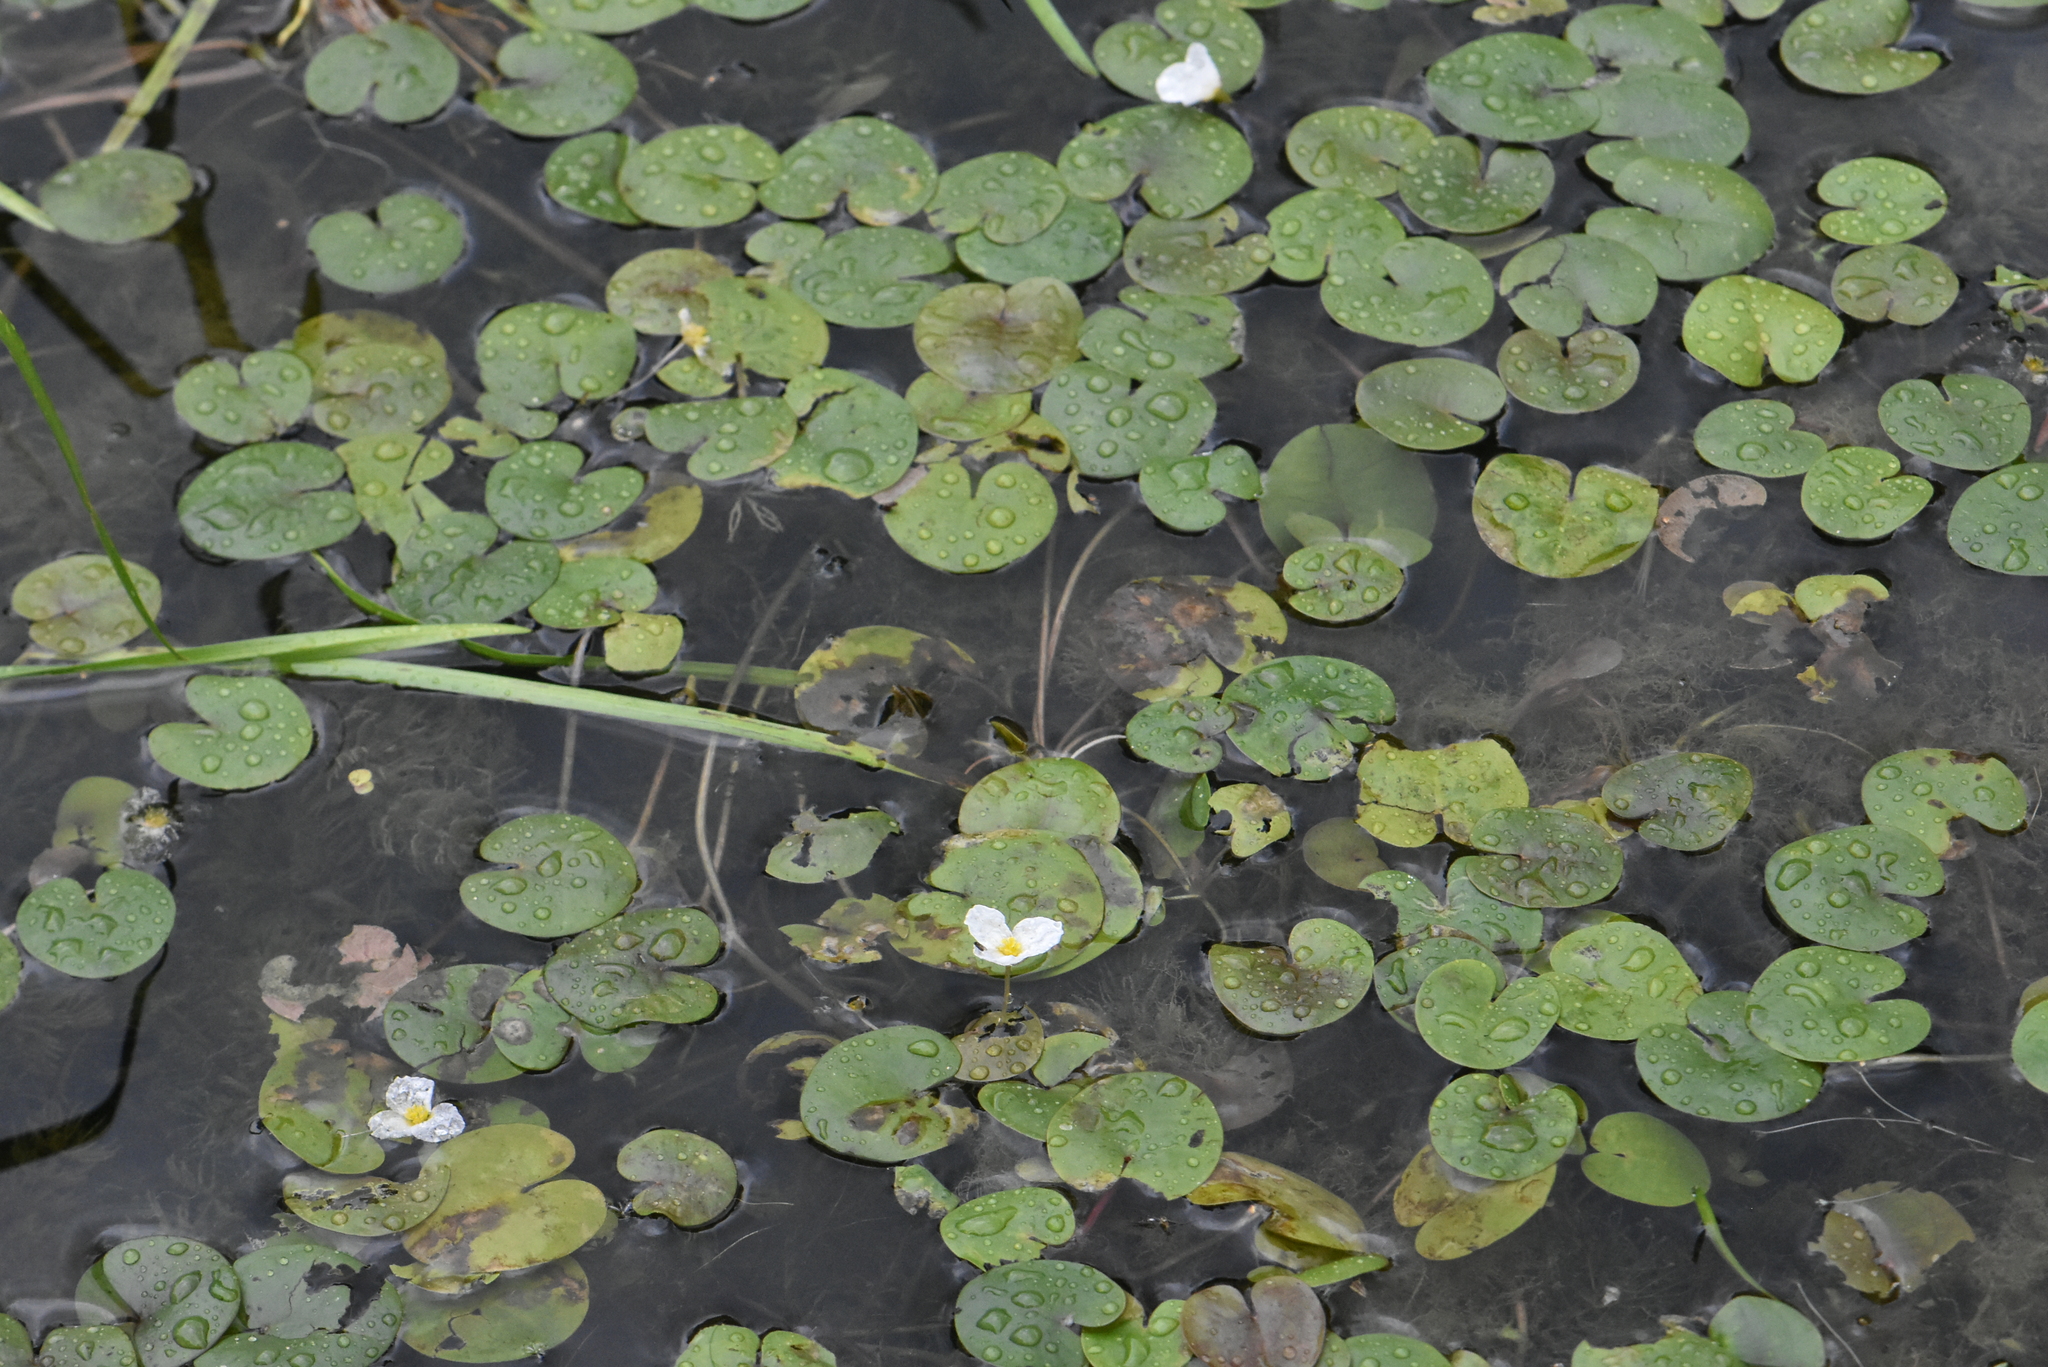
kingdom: Plantae
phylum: Tracheophyta
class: Liliopsida
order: Alismatales
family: Hydrocharitaceae
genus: Hydrocharis
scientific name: Hydrocharis morsus-ranae
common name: Frogbit
